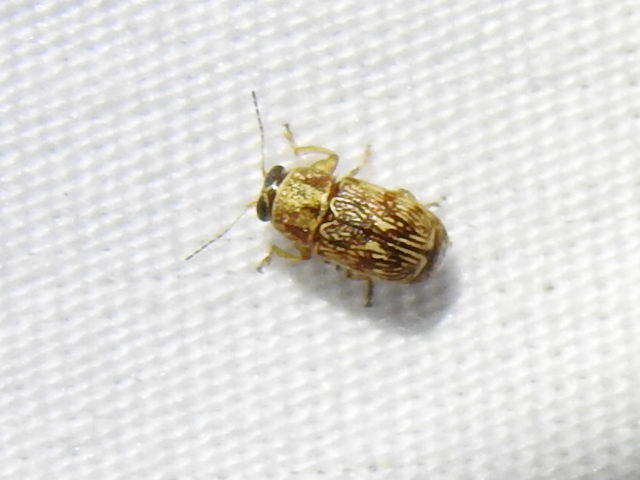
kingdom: Animalia
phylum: Arthropoda
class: Insecta
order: Coleoptera
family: Chrysomelidae
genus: Pachybrachis
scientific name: Pachybrachis texanus
